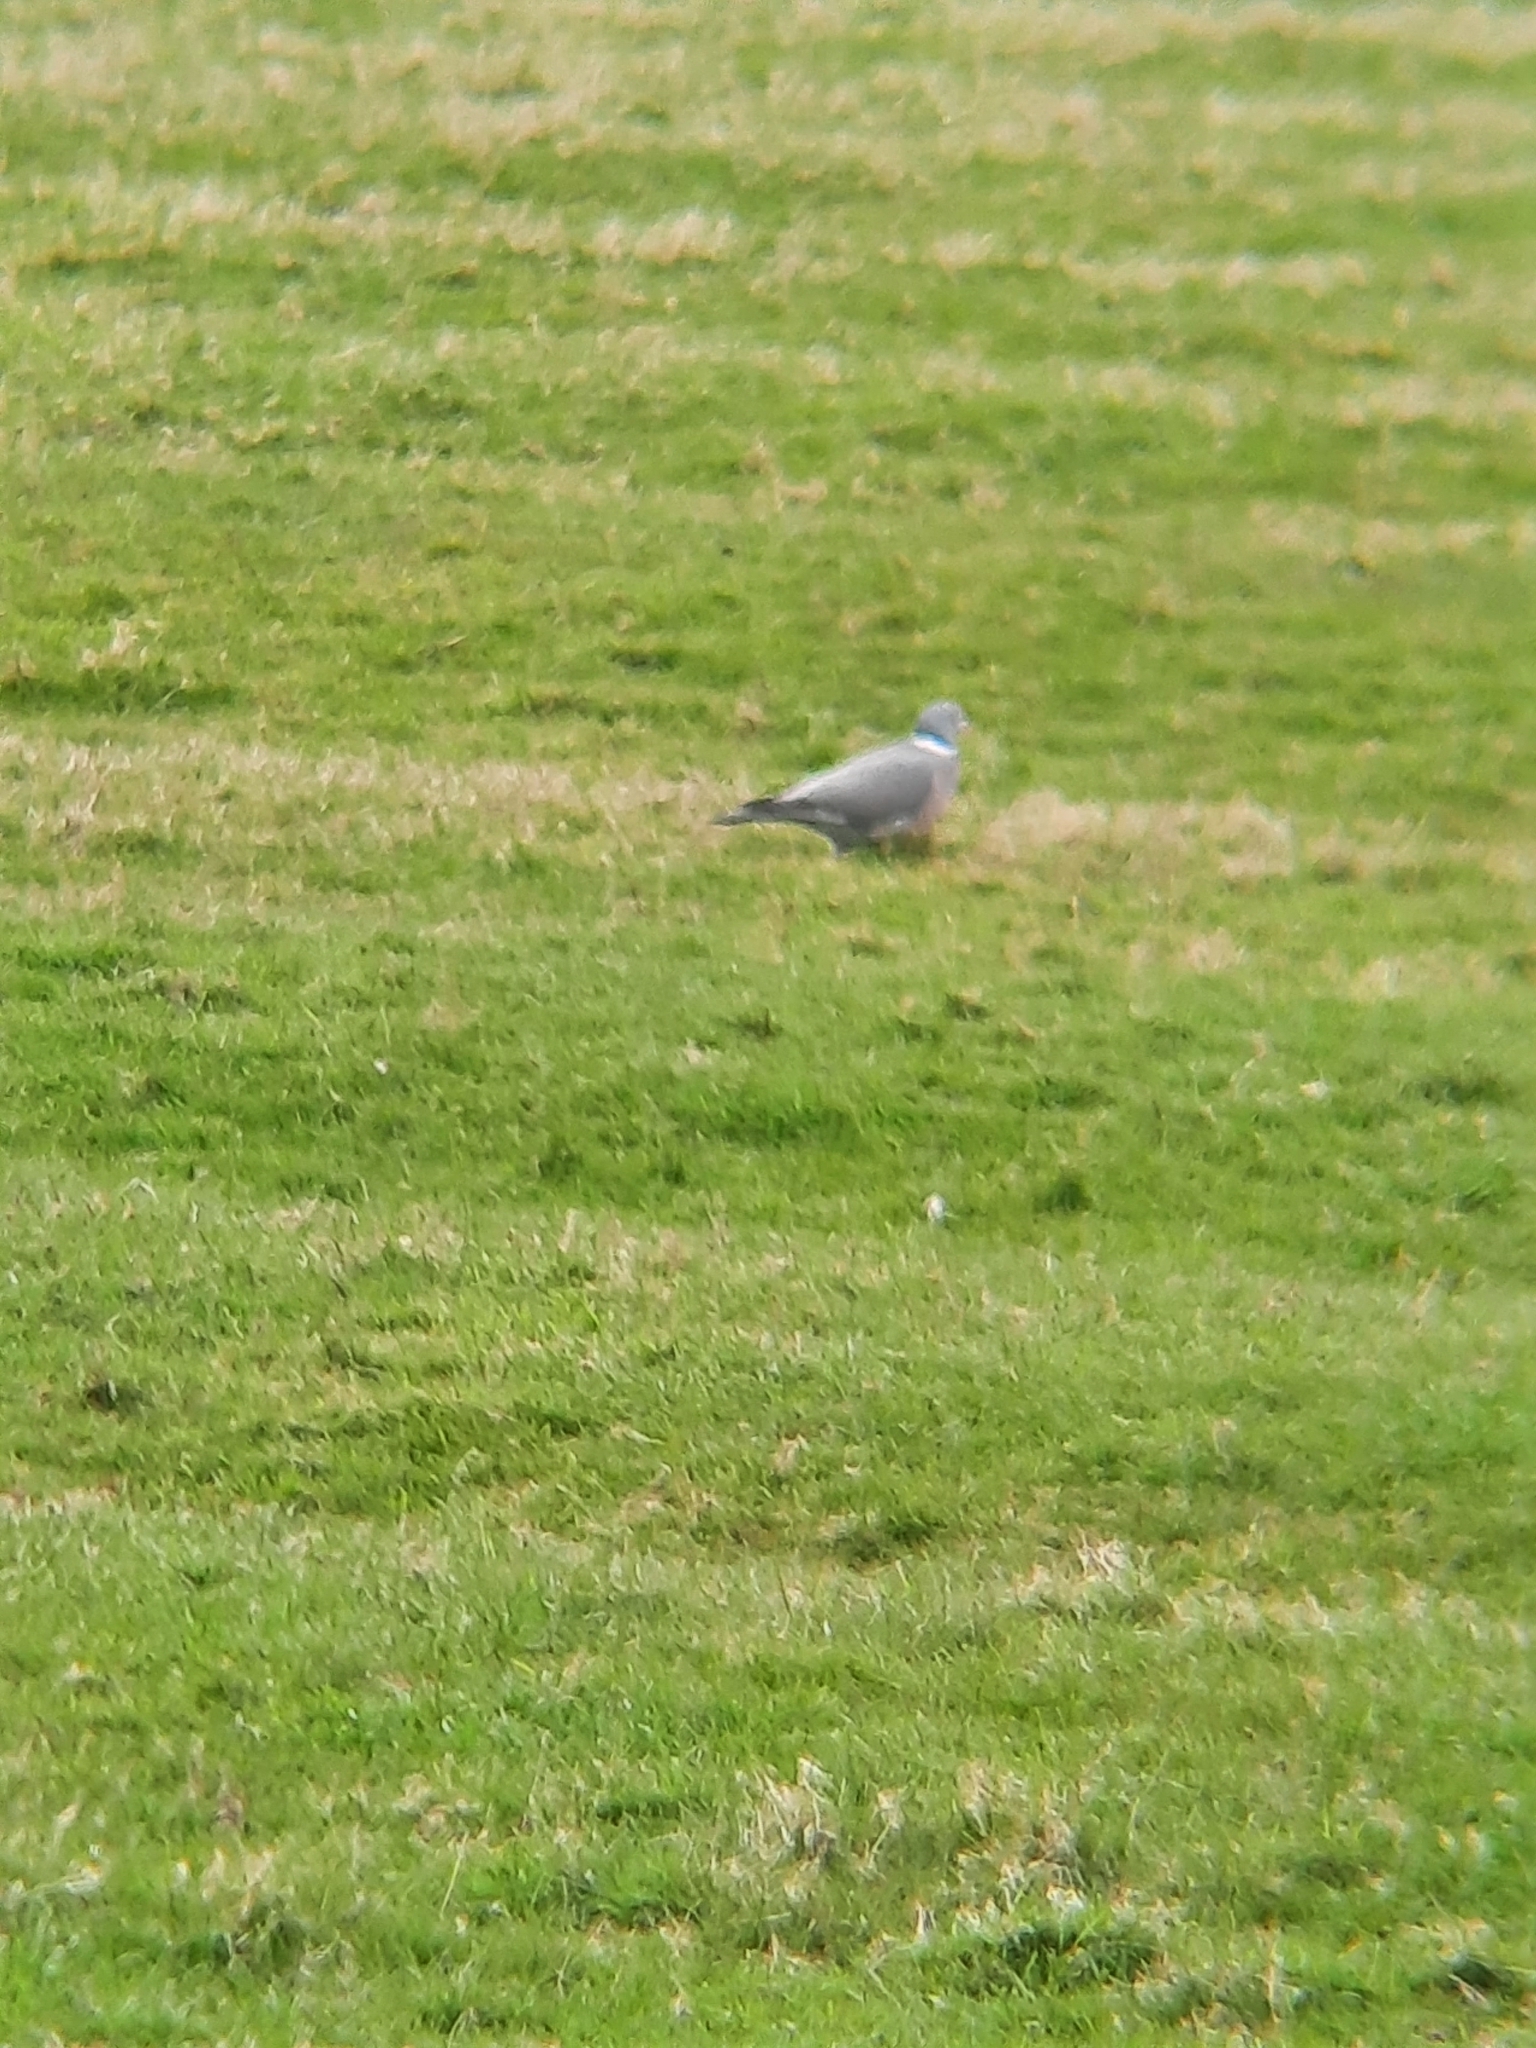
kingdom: Animalia
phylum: Chordata
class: Aves
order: Columbiformes
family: Columbidae
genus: Columba
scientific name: Columba palumbus
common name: Common wood pigeon
